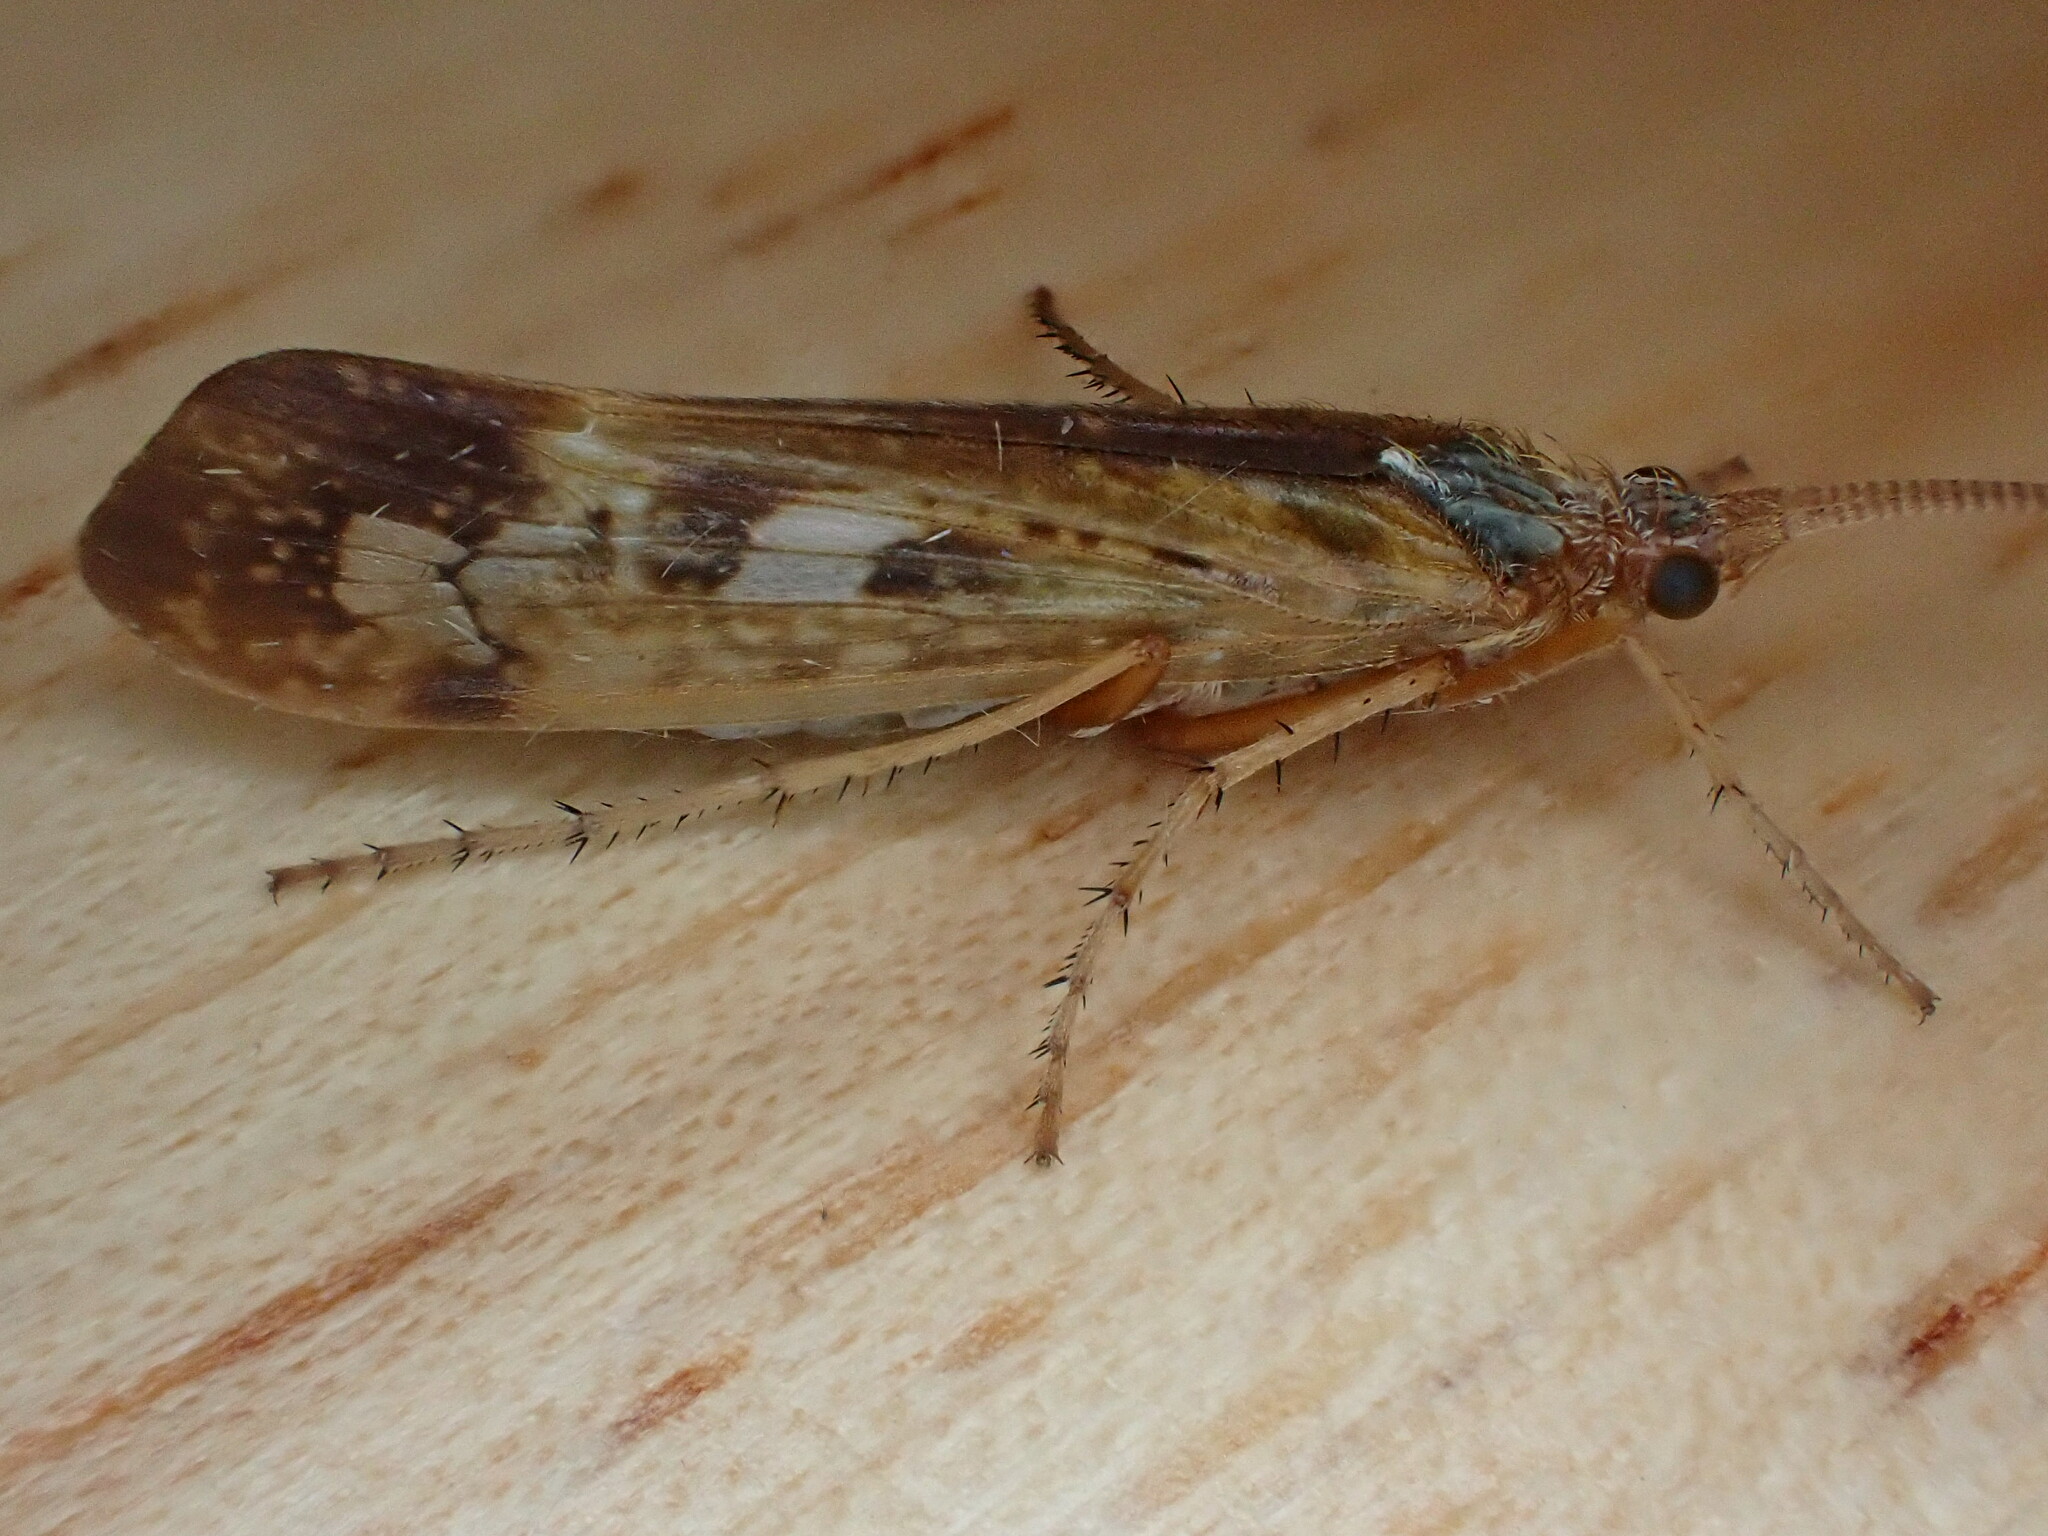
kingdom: Animalia
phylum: Arthropoda
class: Insecta
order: Trichoptera
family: Limnephilidae
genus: Limnephilus
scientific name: Limnephilus marmoratus
